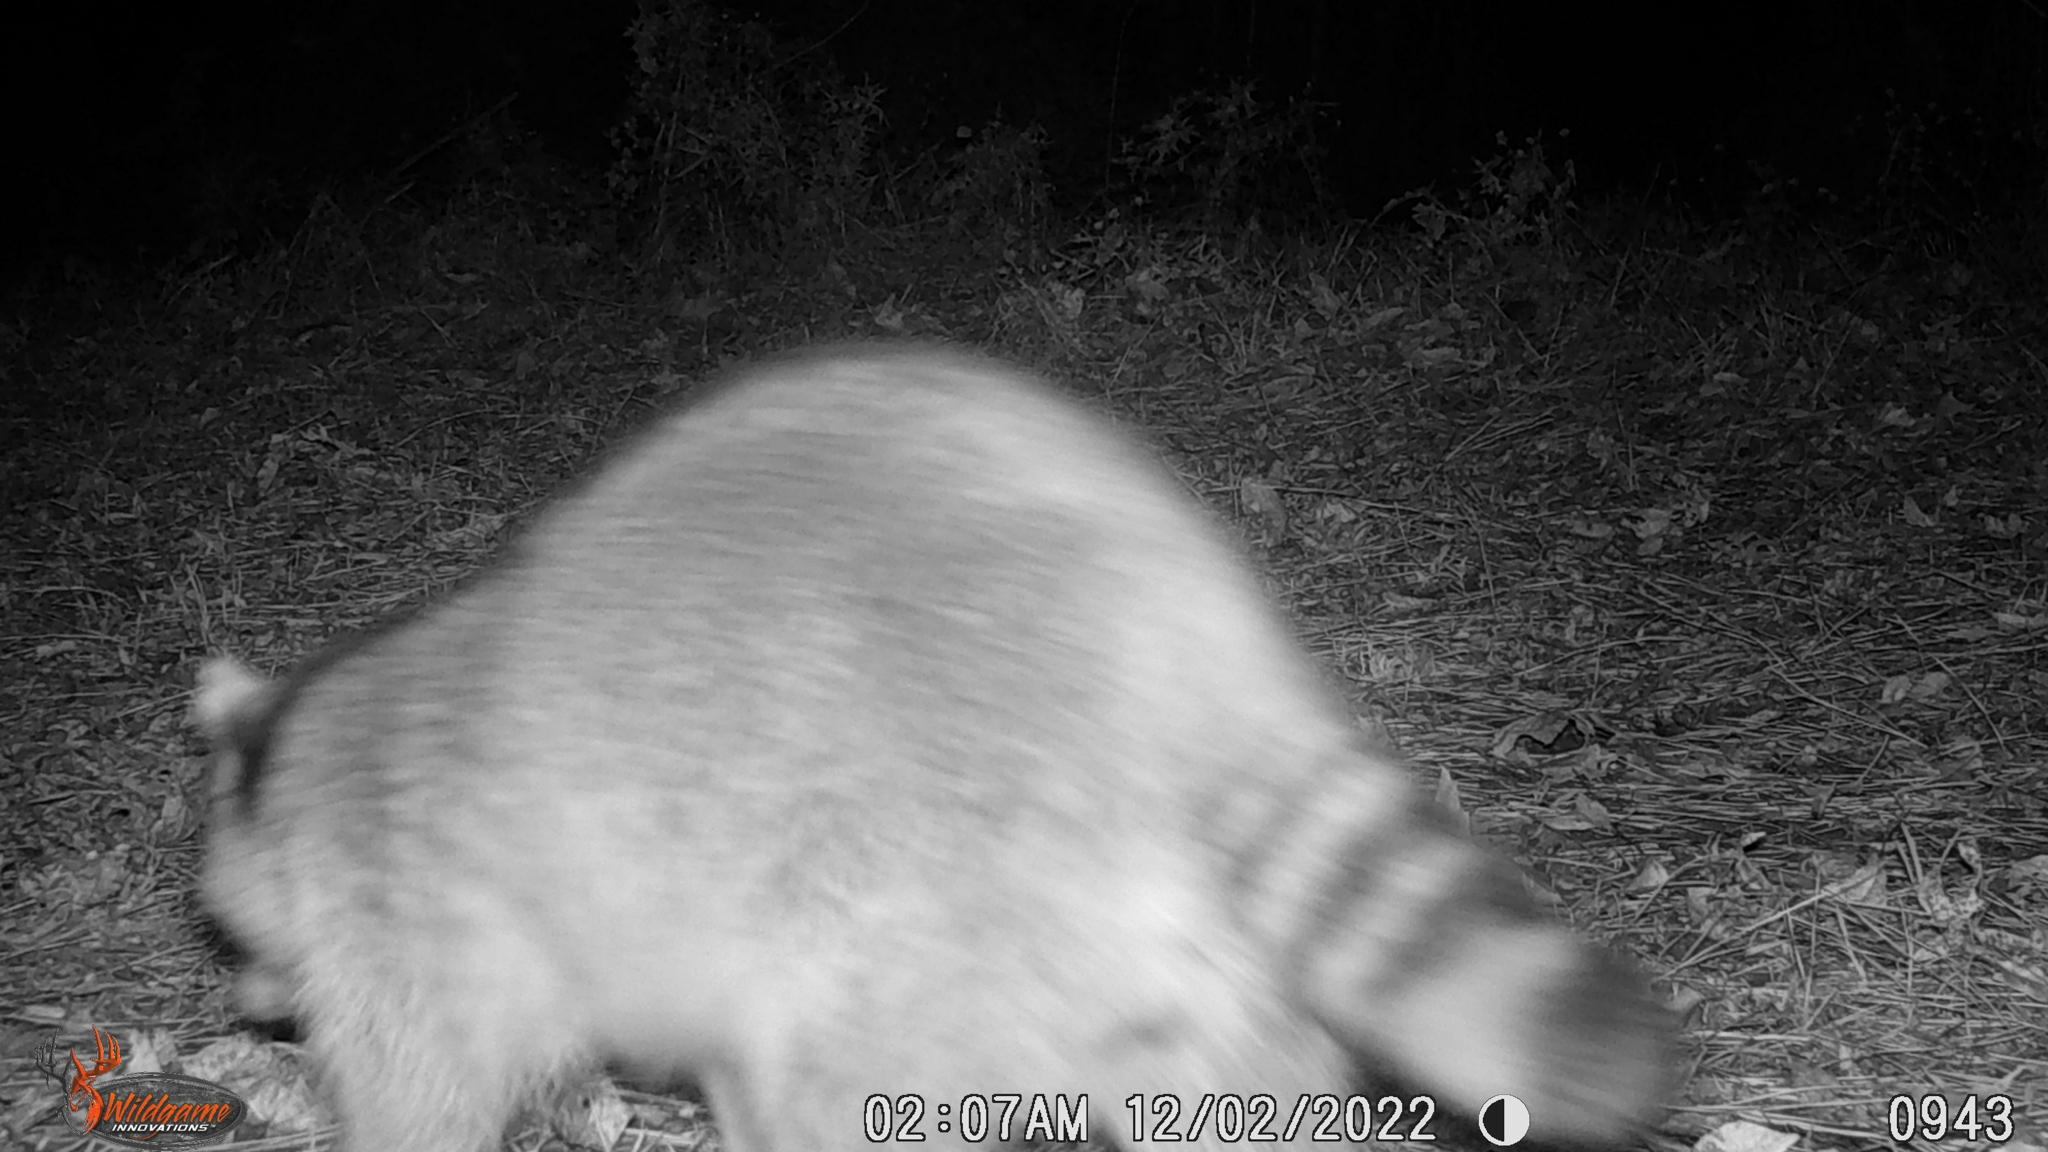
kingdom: Animalia
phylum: Chordata
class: Mammalia
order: Carnivora
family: Procyonidae
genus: Procyon
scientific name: Procyon lotor
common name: Raccoon
